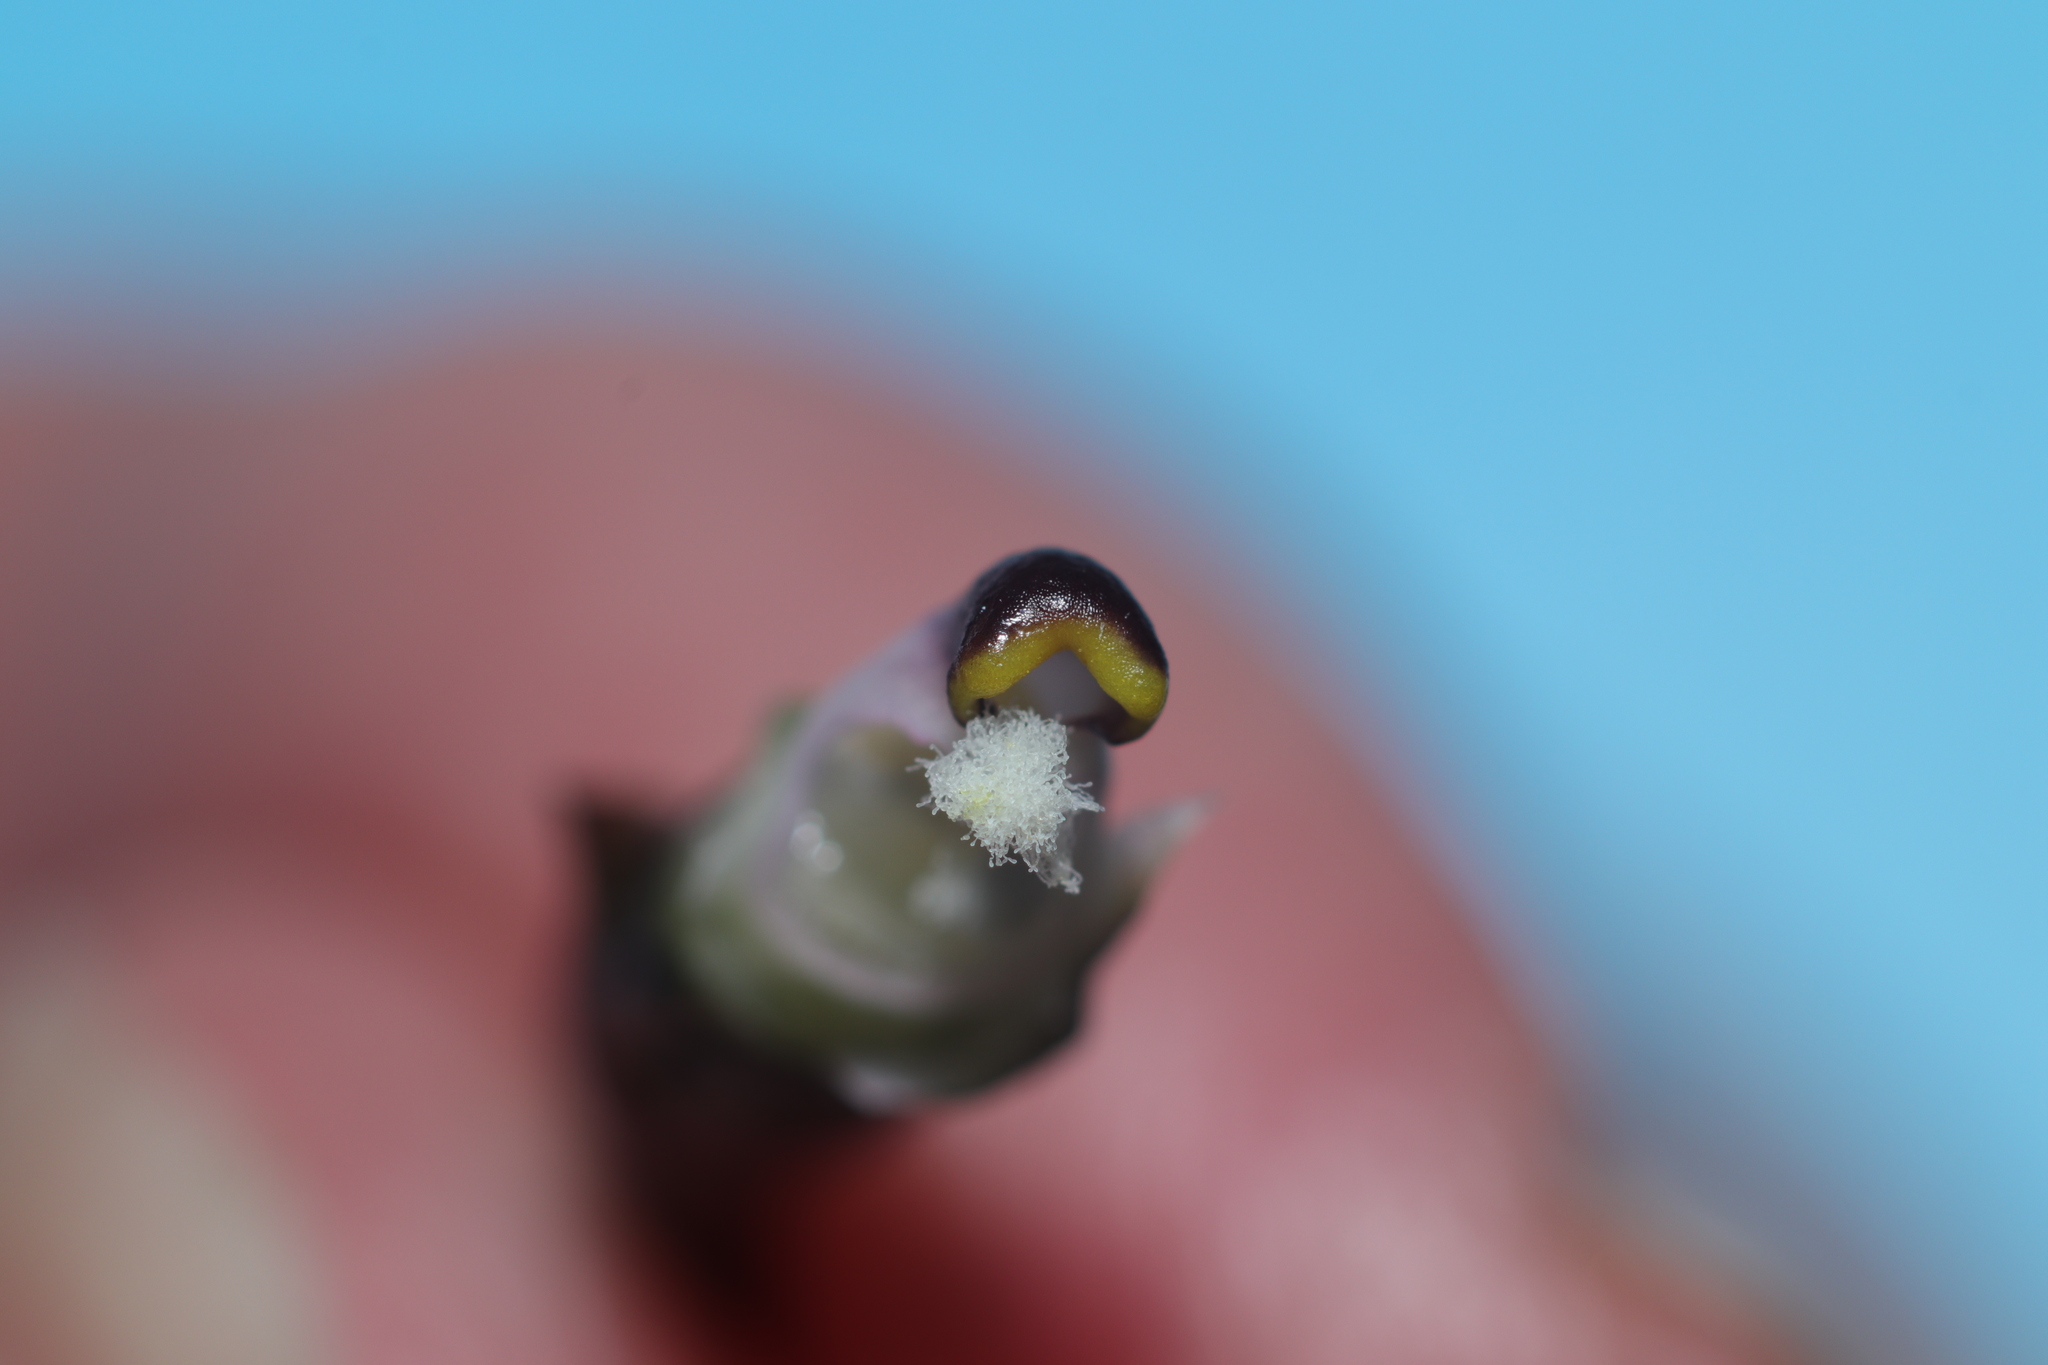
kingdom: Plantae
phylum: Tracheophyta
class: Liliopsida
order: Asparagales
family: Orchidaceae
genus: Thelymitra
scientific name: Thelymitra longifolia
